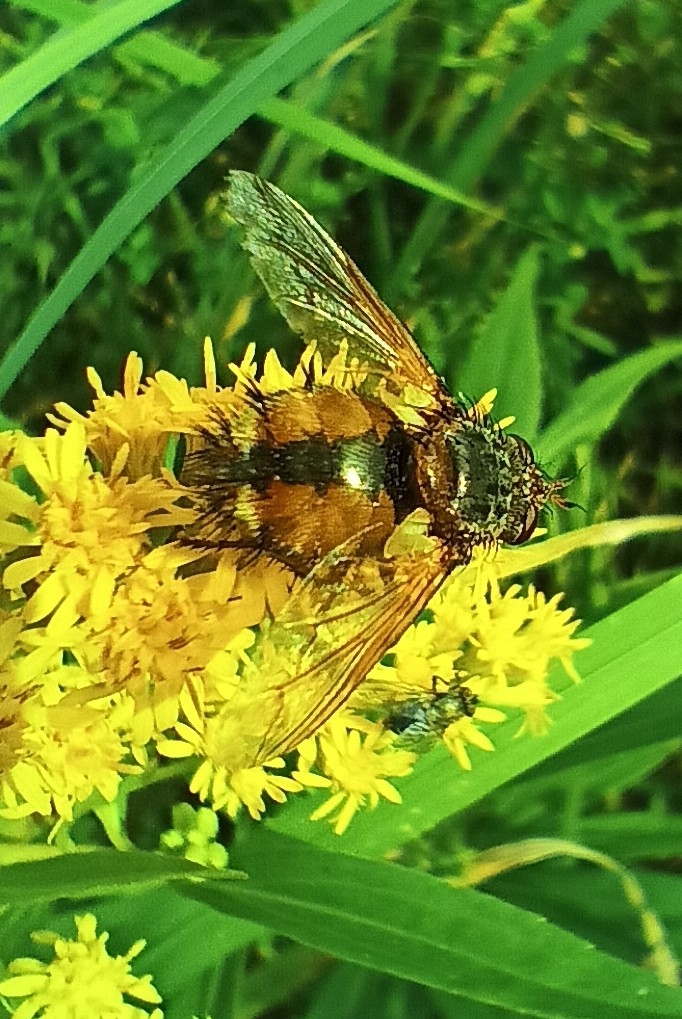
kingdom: Animalia
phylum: Arthropoda
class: Insecta
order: Diptera
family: Tachinidae
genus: Tachina
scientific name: Tachina fera
